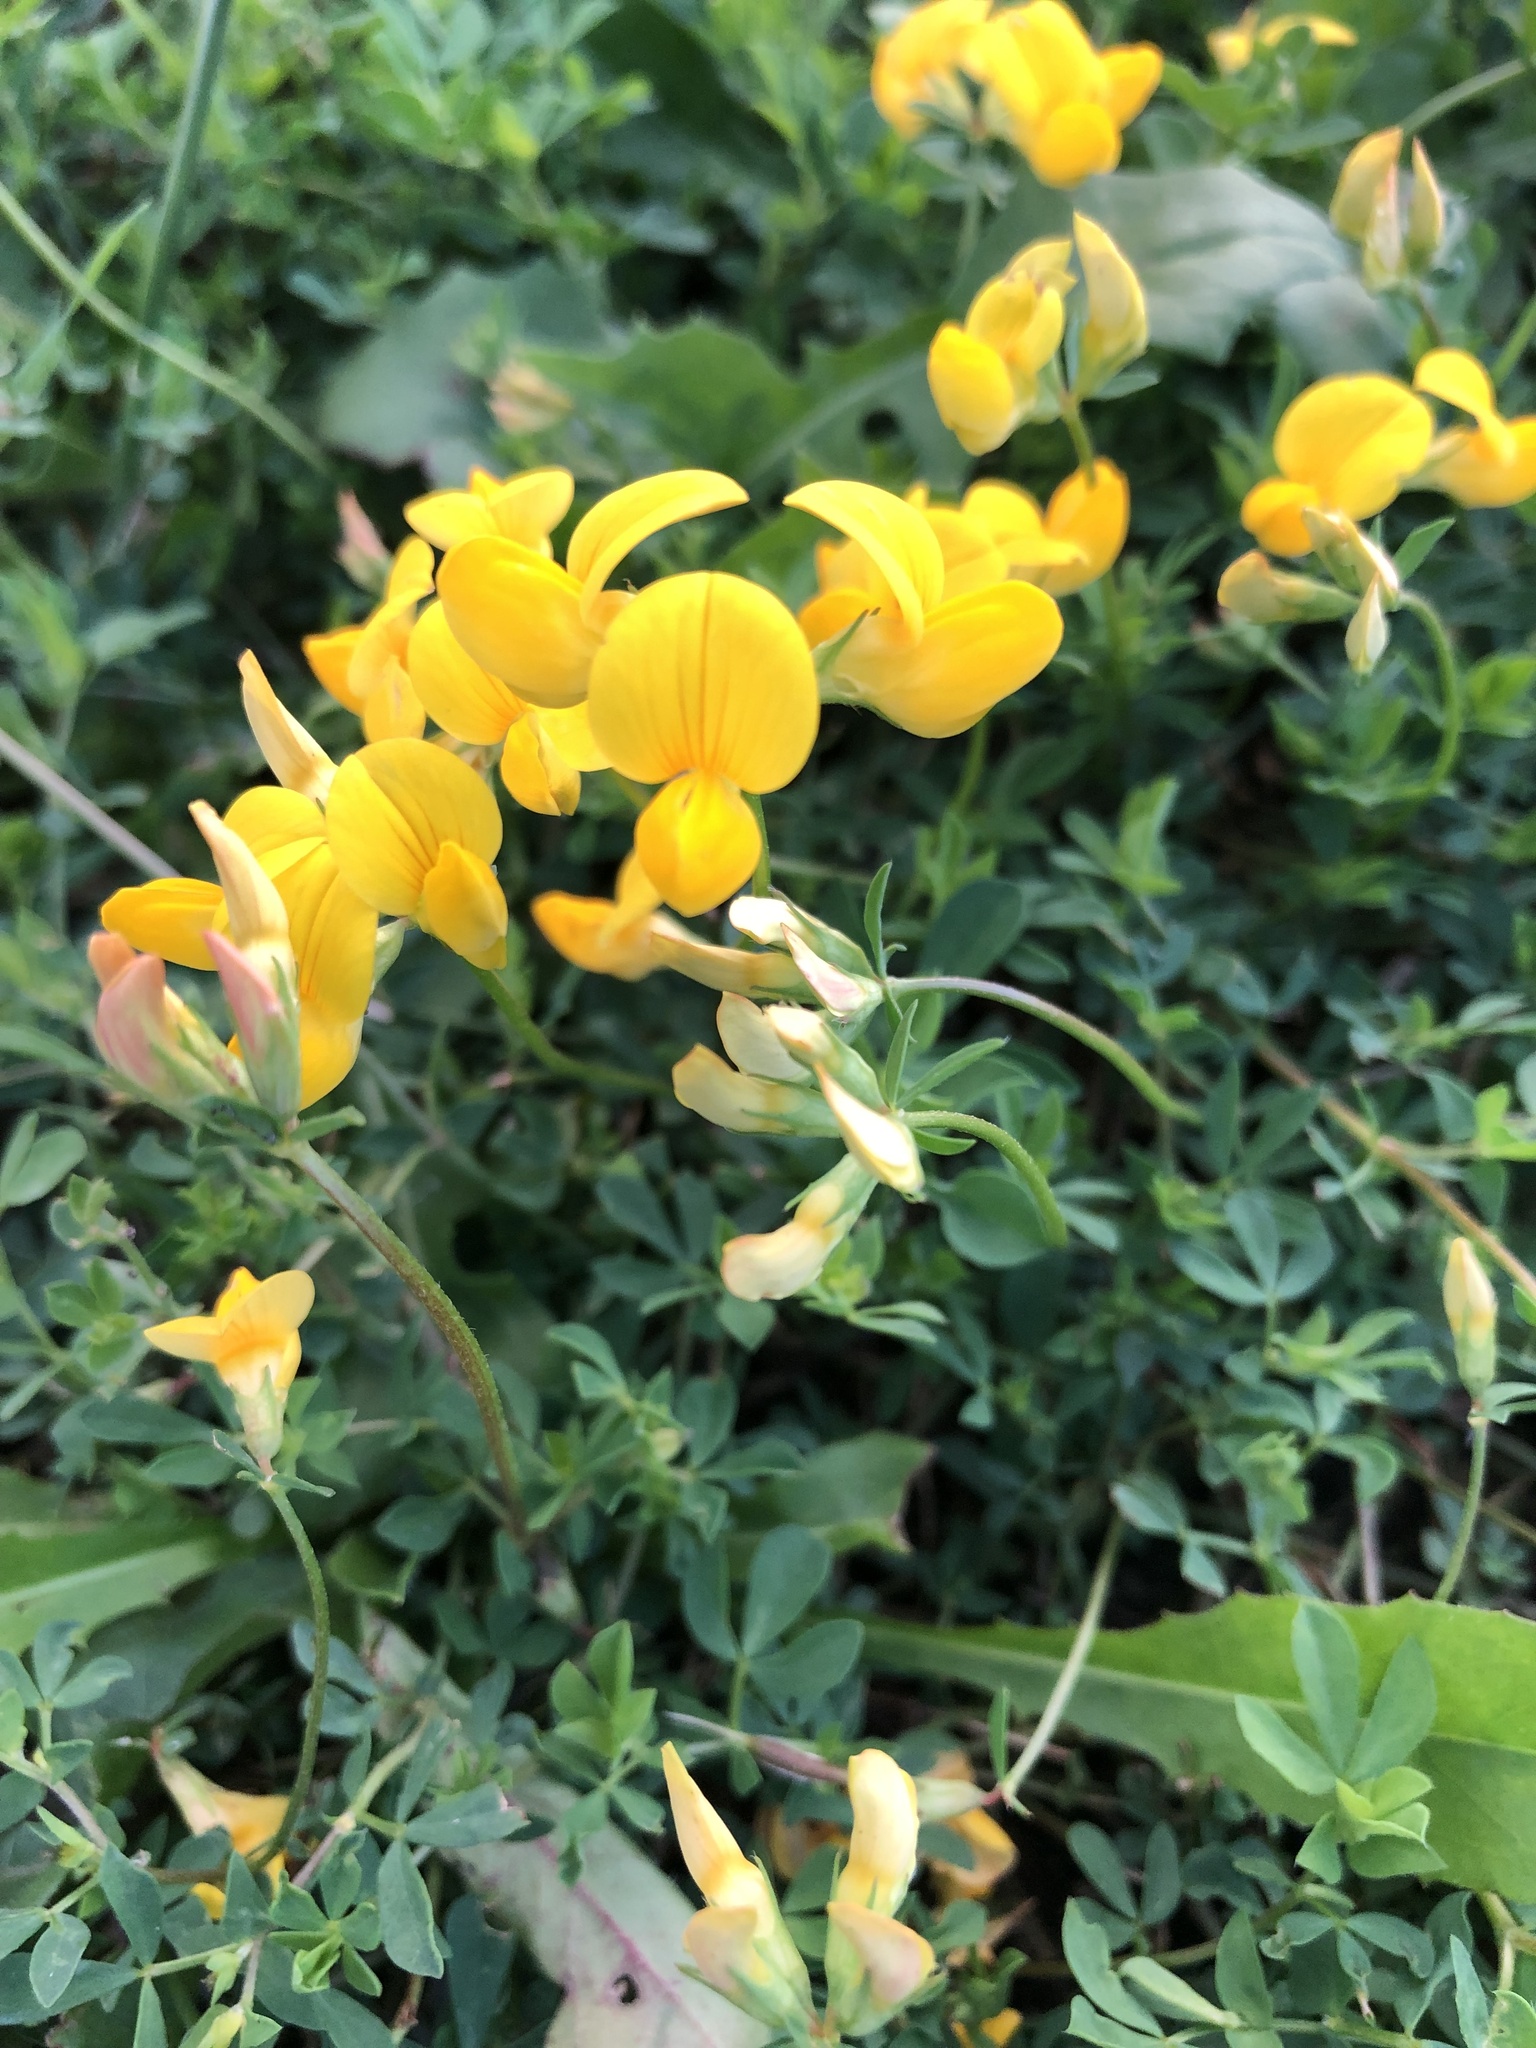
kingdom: Plantae
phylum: Tracheophyta
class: Magnoliopsida
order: Fabales
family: Fabaceae
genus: Lotus
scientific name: Lotus corniculatus
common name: Common bird's-foot-trefoil
